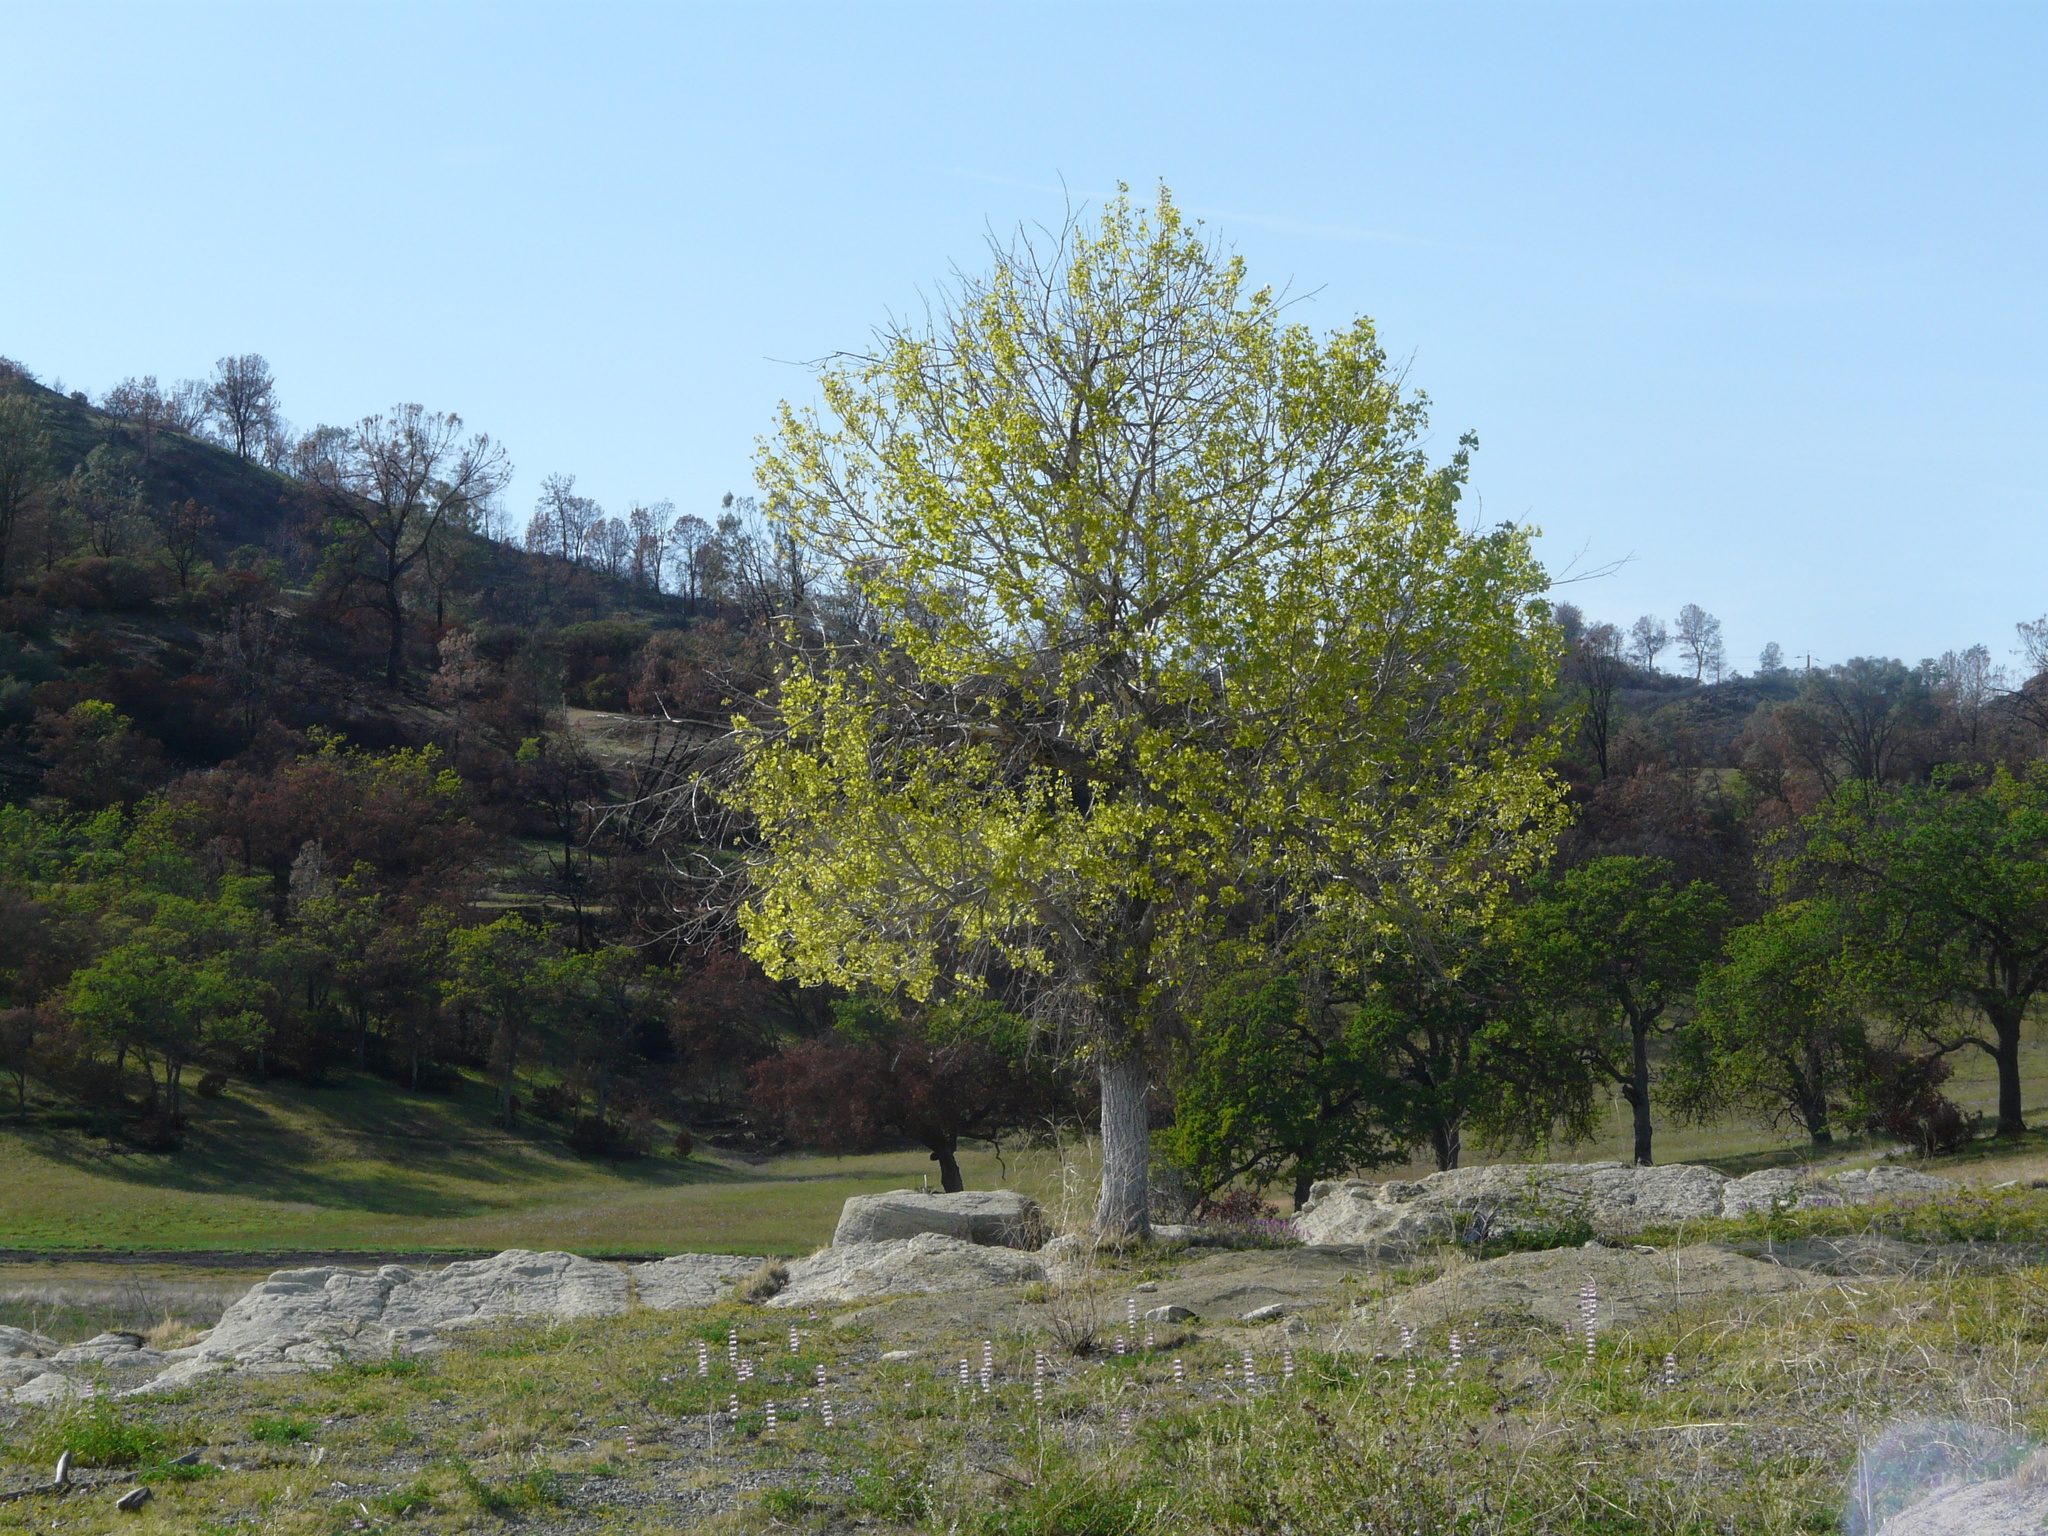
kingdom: Plantae
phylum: Tracheophyta
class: Magnoliopsida
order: Malpighiales
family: Salicaceae
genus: Populus
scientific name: Populus fremontii
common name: Fremont's cottonwood
